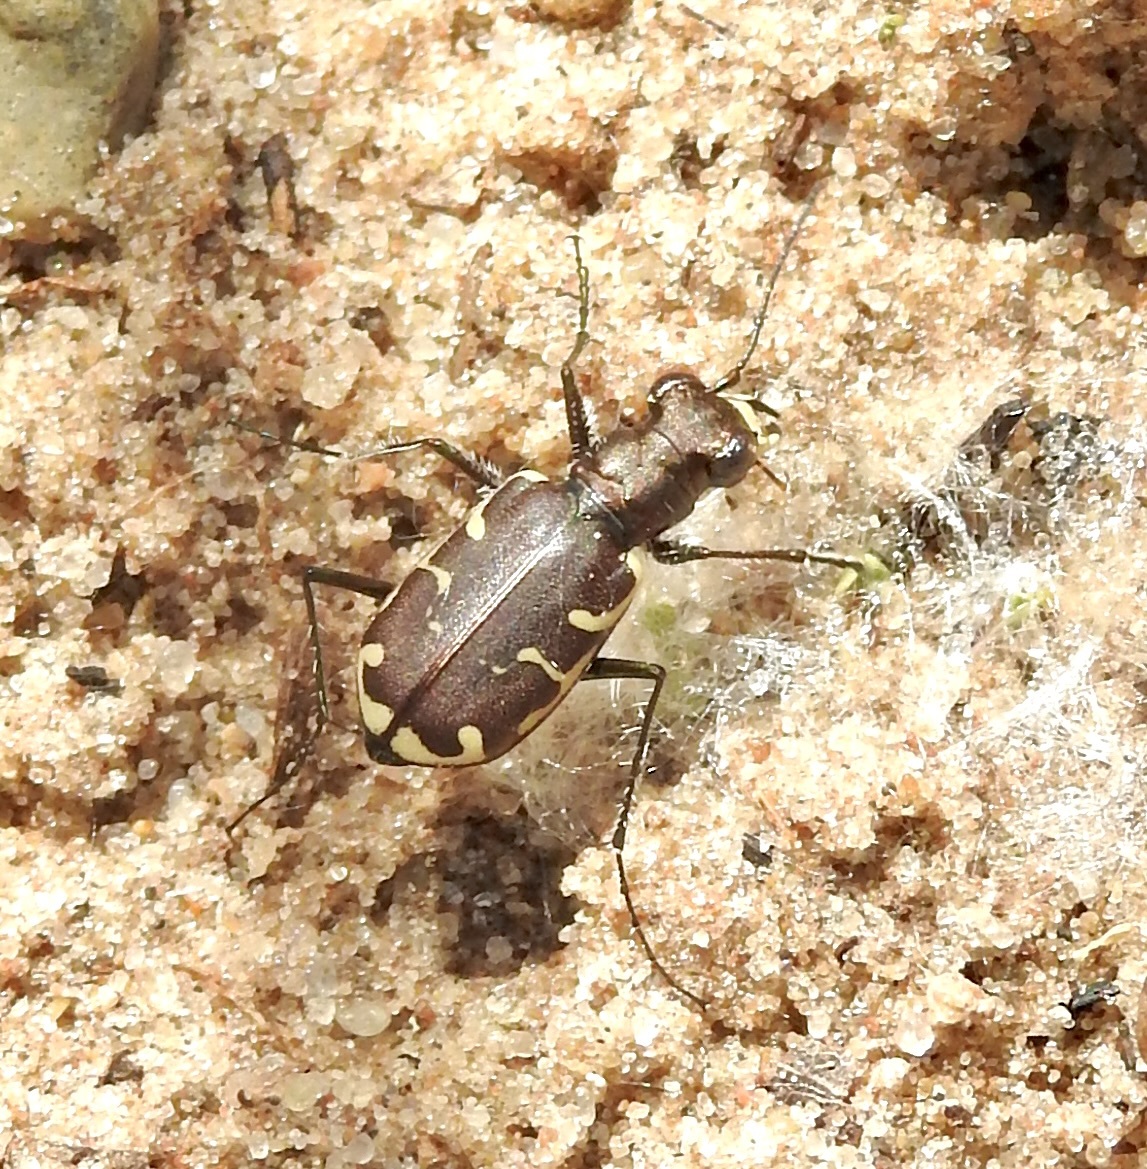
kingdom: Animalia
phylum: Arthropoda
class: Insecta
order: Coleoptera
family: Carabidae
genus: Cicindela
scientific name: Cicindela repanda
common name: Bronzed tiger beetle
